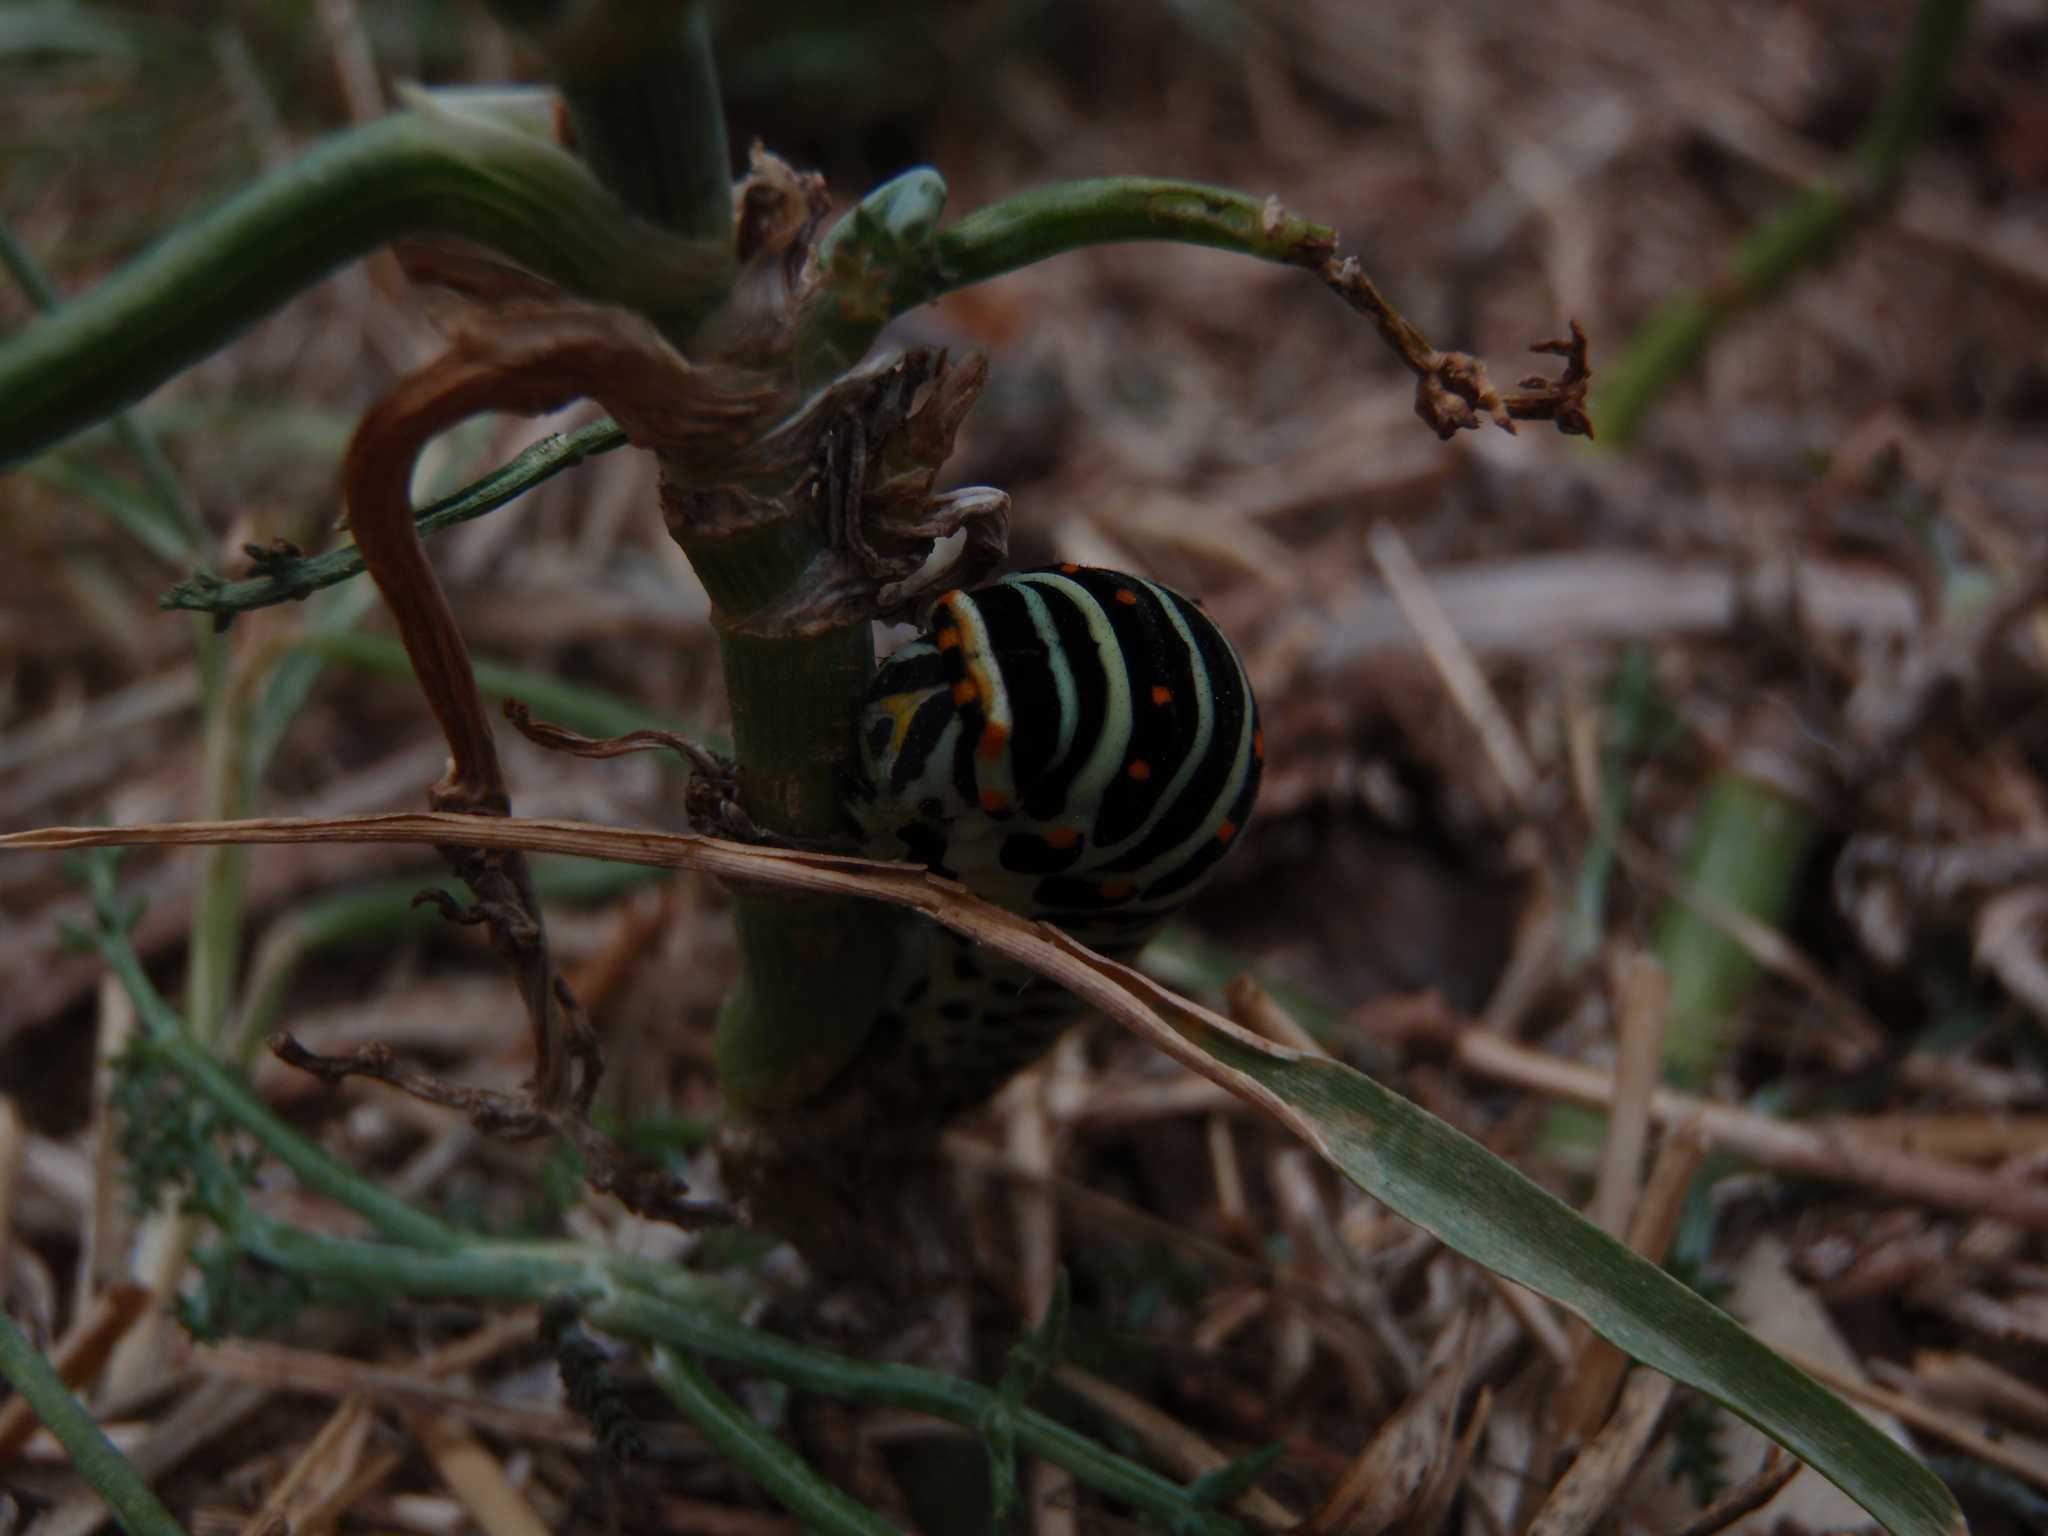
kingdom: Animalia
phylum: Arthropoda
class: Insecta
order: Lepidoptera
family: Papilionidae
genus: Papilio
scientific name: Papilio machaon
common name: Swallowtail
